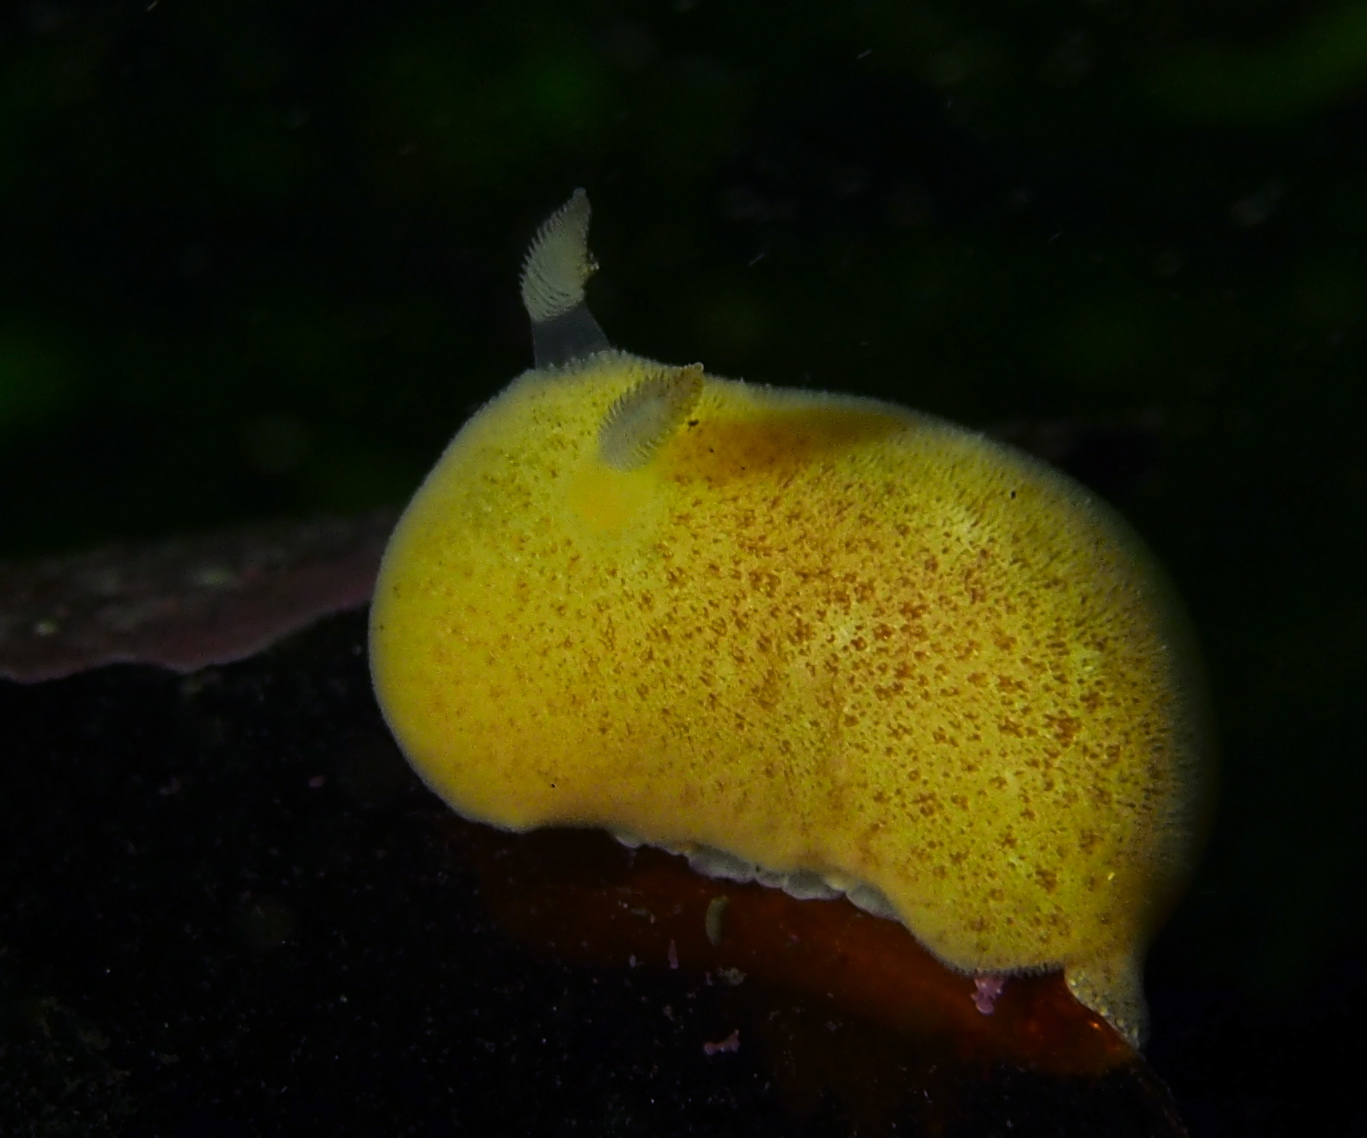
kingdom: Animalia
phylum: Mollusca
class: Gastropoda
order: Nudibranchia
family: Discodorididae
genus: Jorunna
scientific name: Jorunna tomentosa
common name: Grey sea slug
